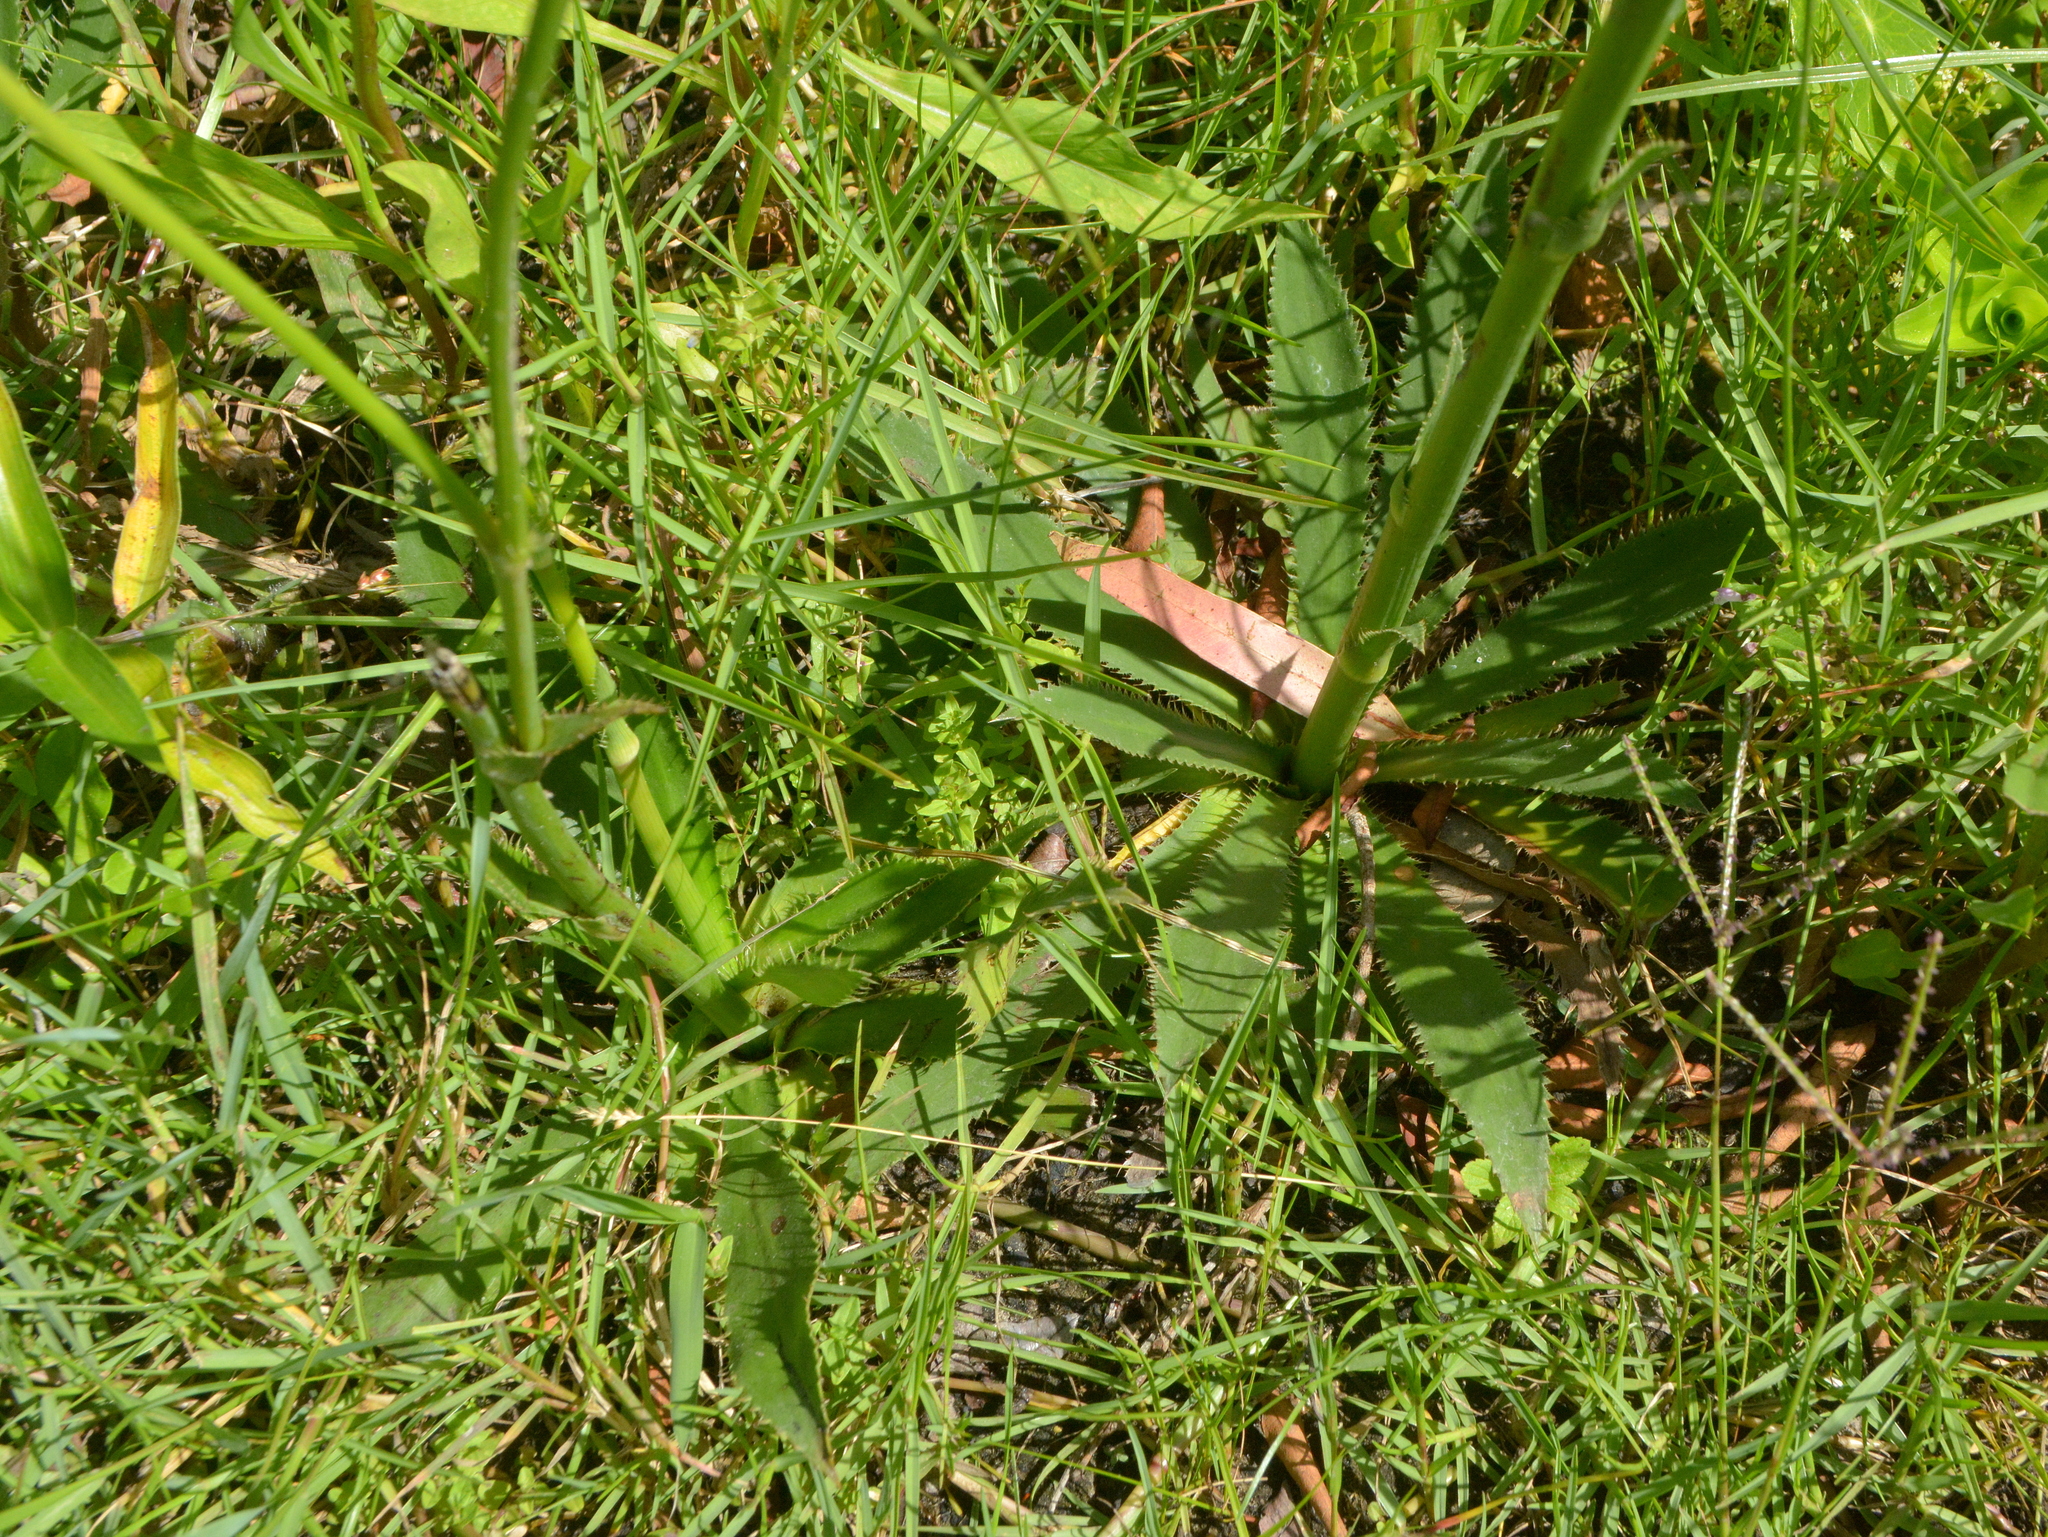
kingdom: Plantae
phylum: Tracheophyta
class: Magnoliopsida
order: Apiales
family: Apiaceae
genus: Eryngium
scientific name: Eryngium elegans
